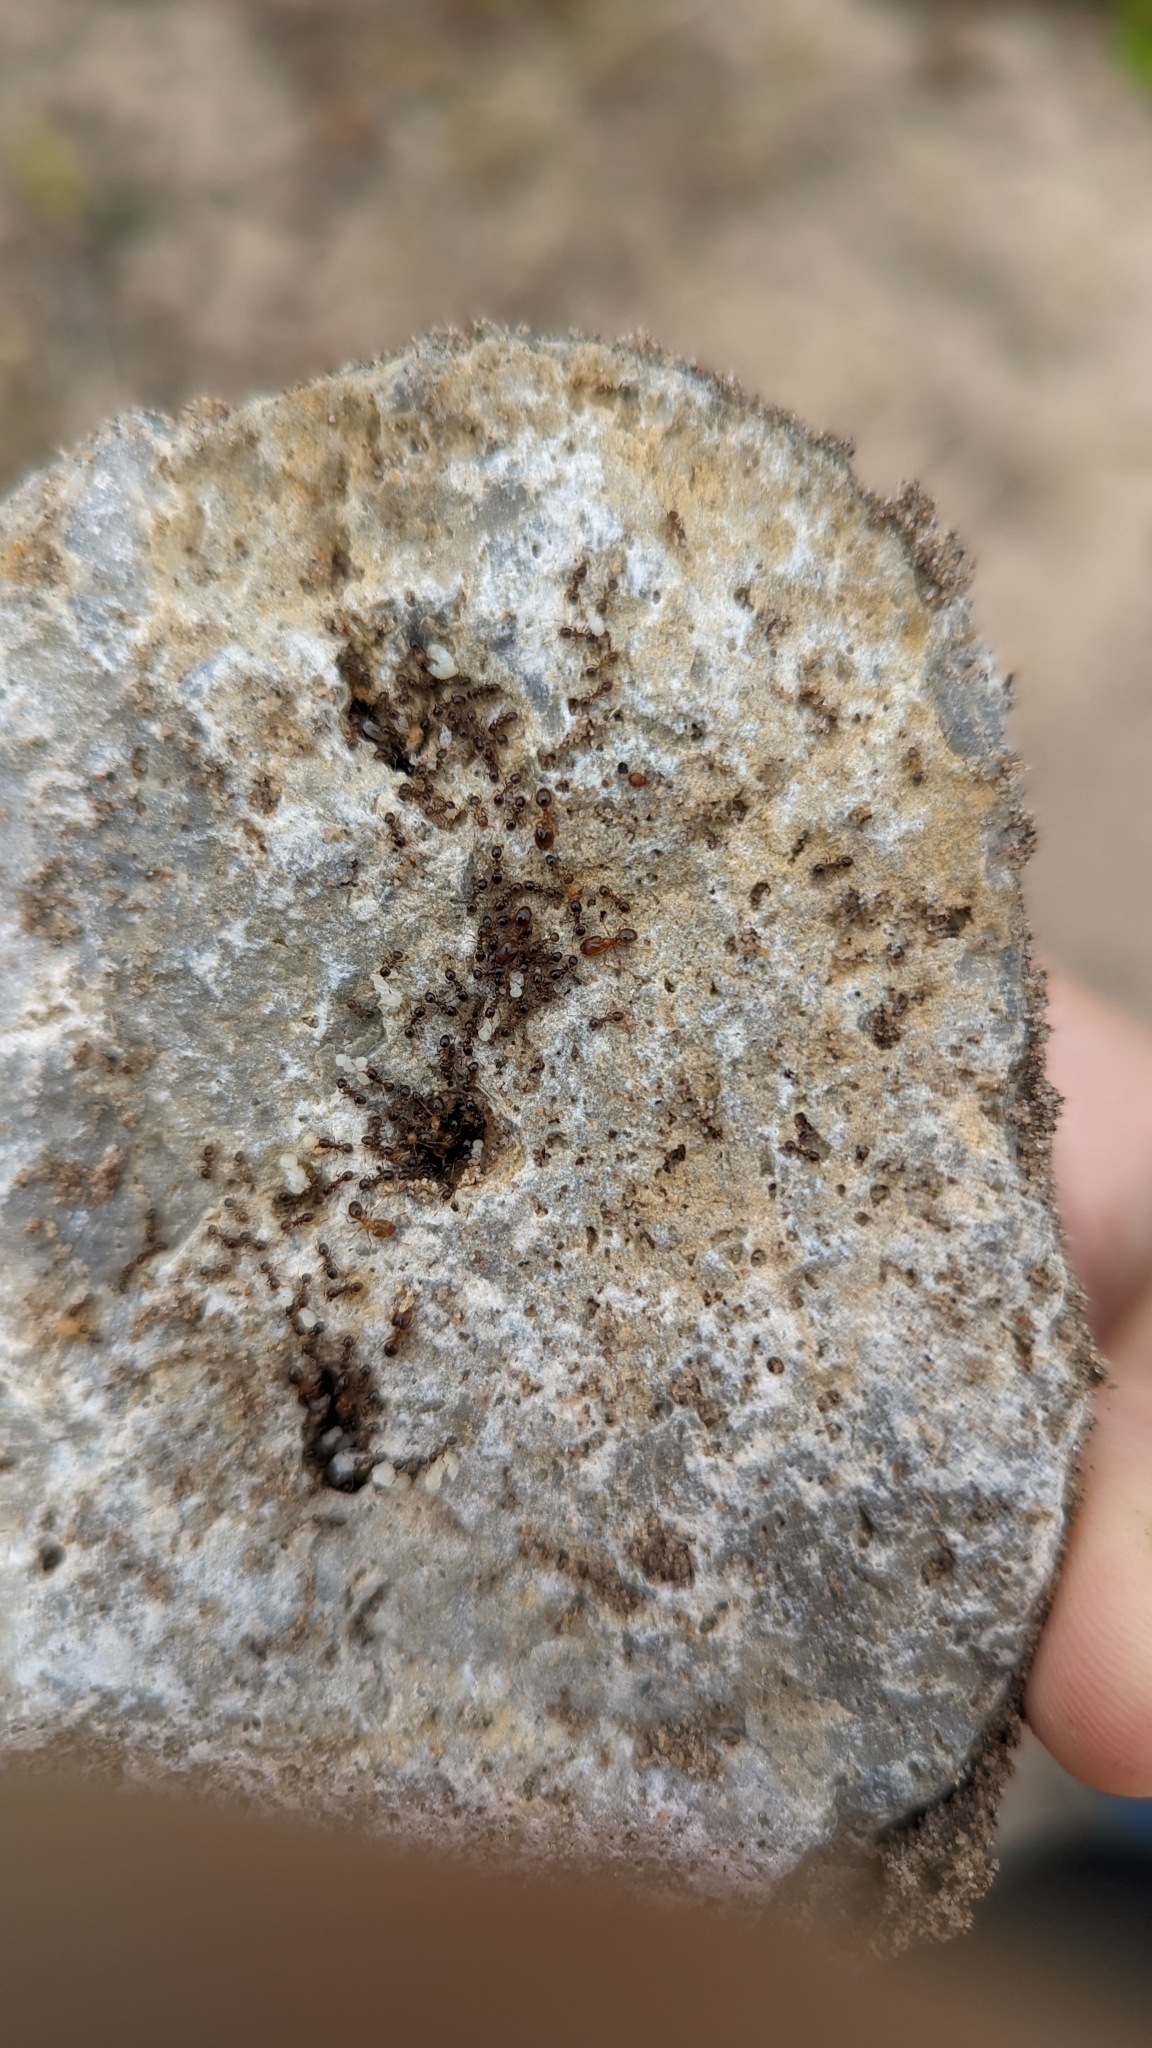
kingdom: Animalia
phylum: Arthropoda
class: Insecta
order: Hymenoptera
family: Formicidae
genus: Pheidole
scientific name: Pheidole bicarinata
